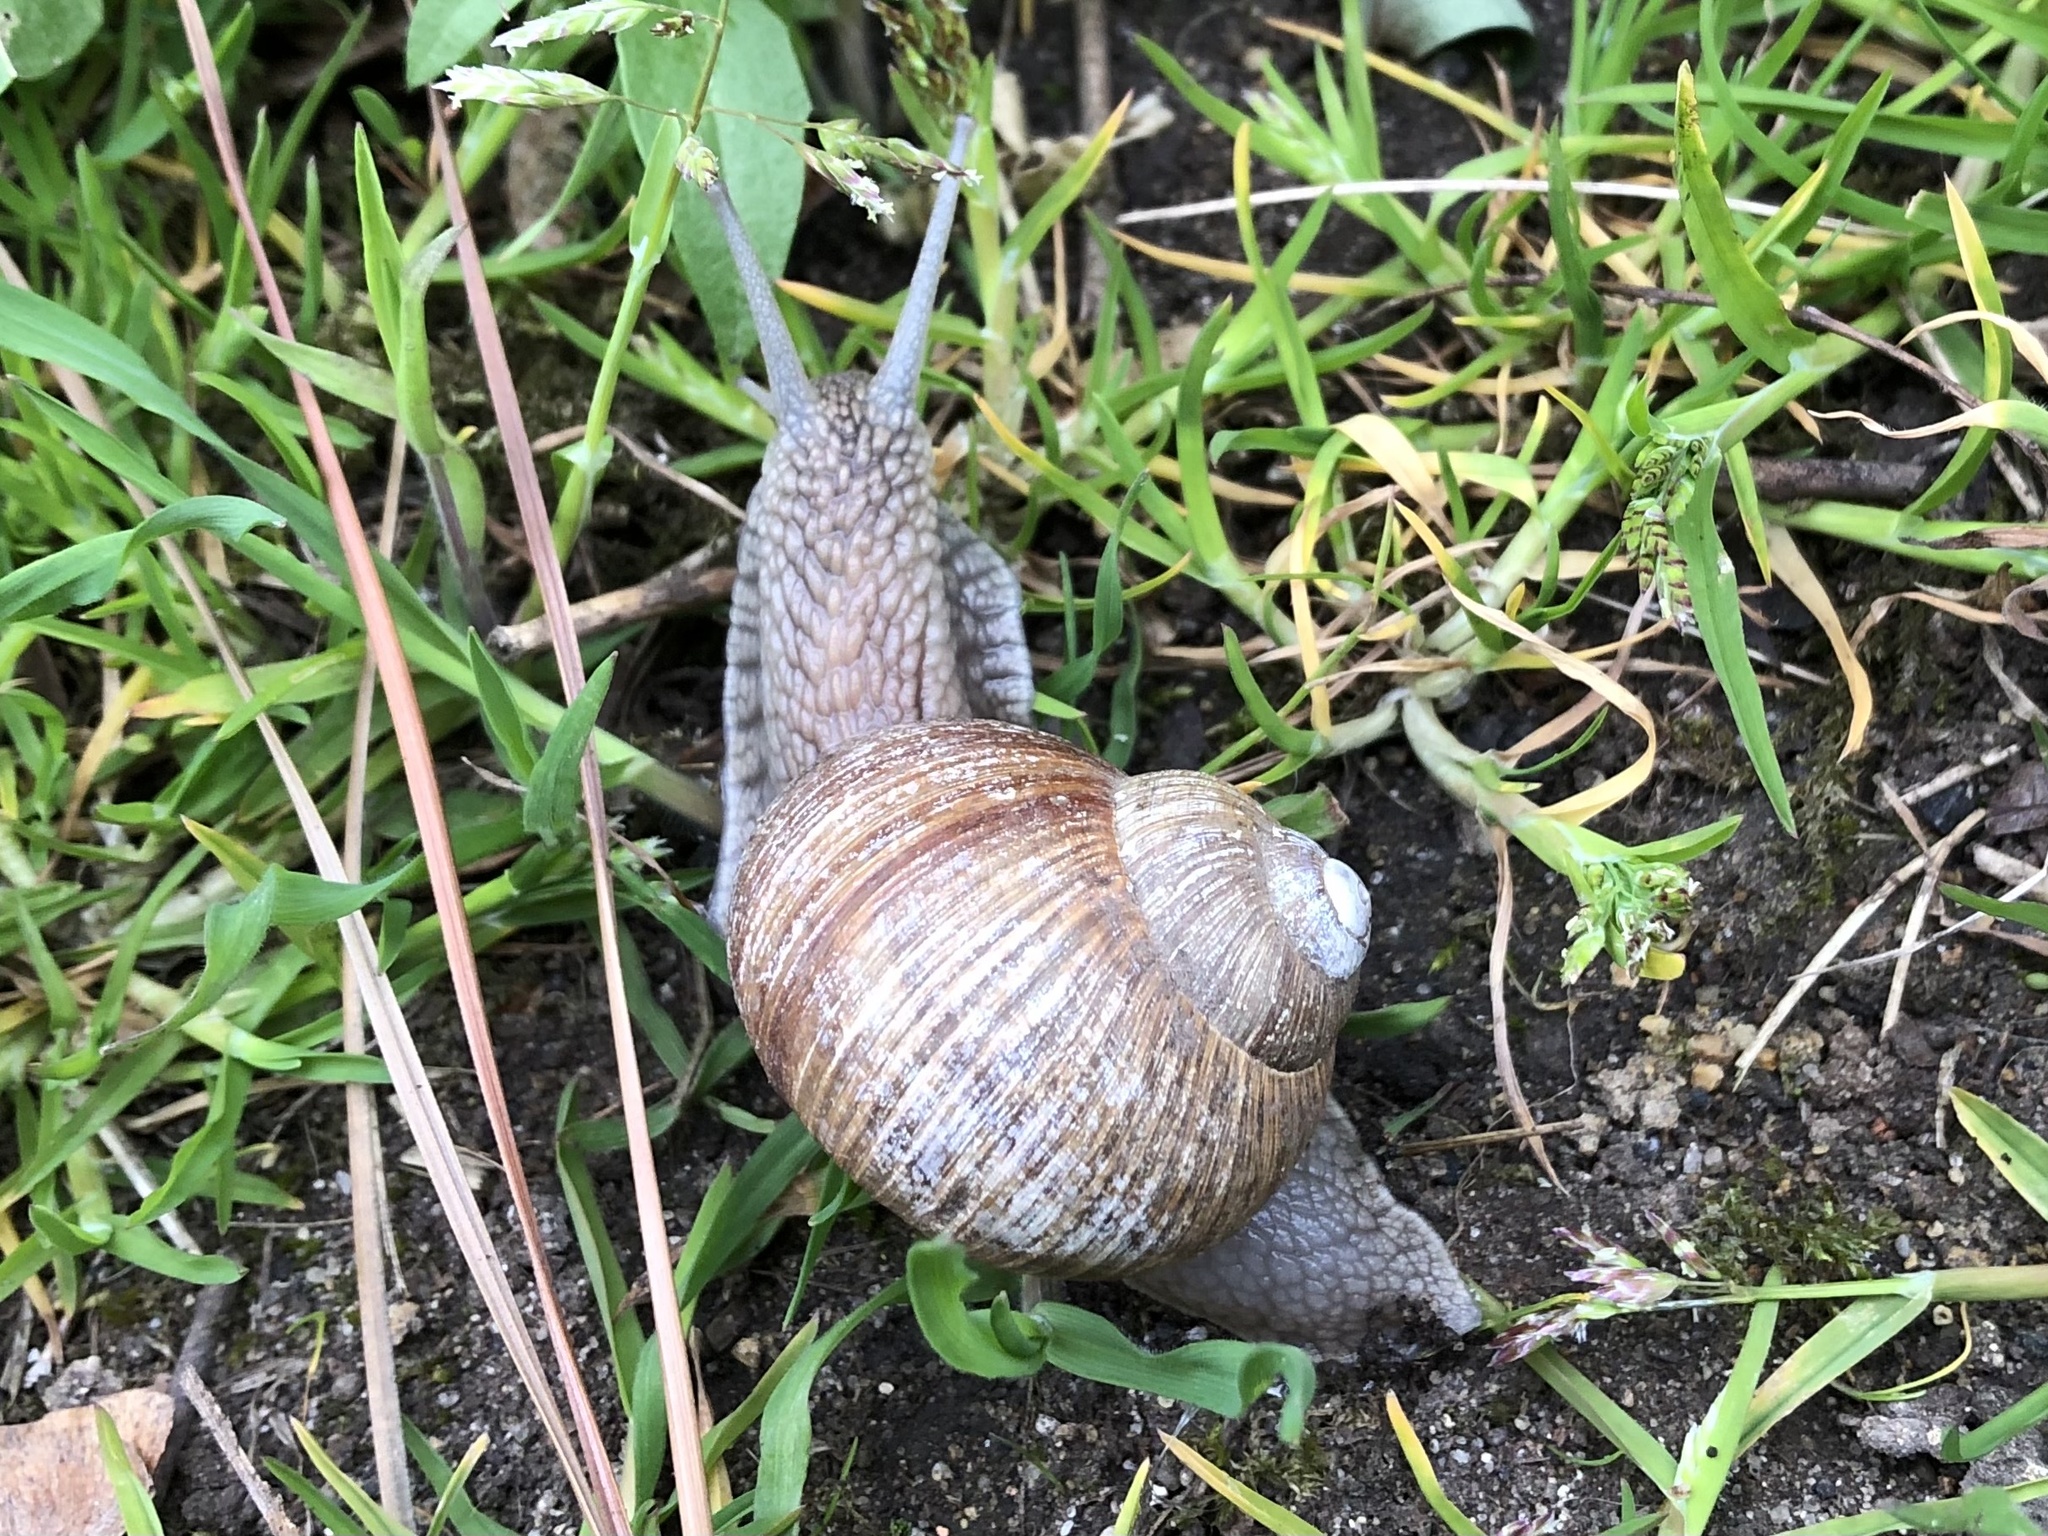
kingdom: Animalia
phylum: Mollusca
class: Gastropoda
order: Stylommatophora
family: Helicidae
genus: Helix
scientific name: Helix pomatia
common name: Roman snail
